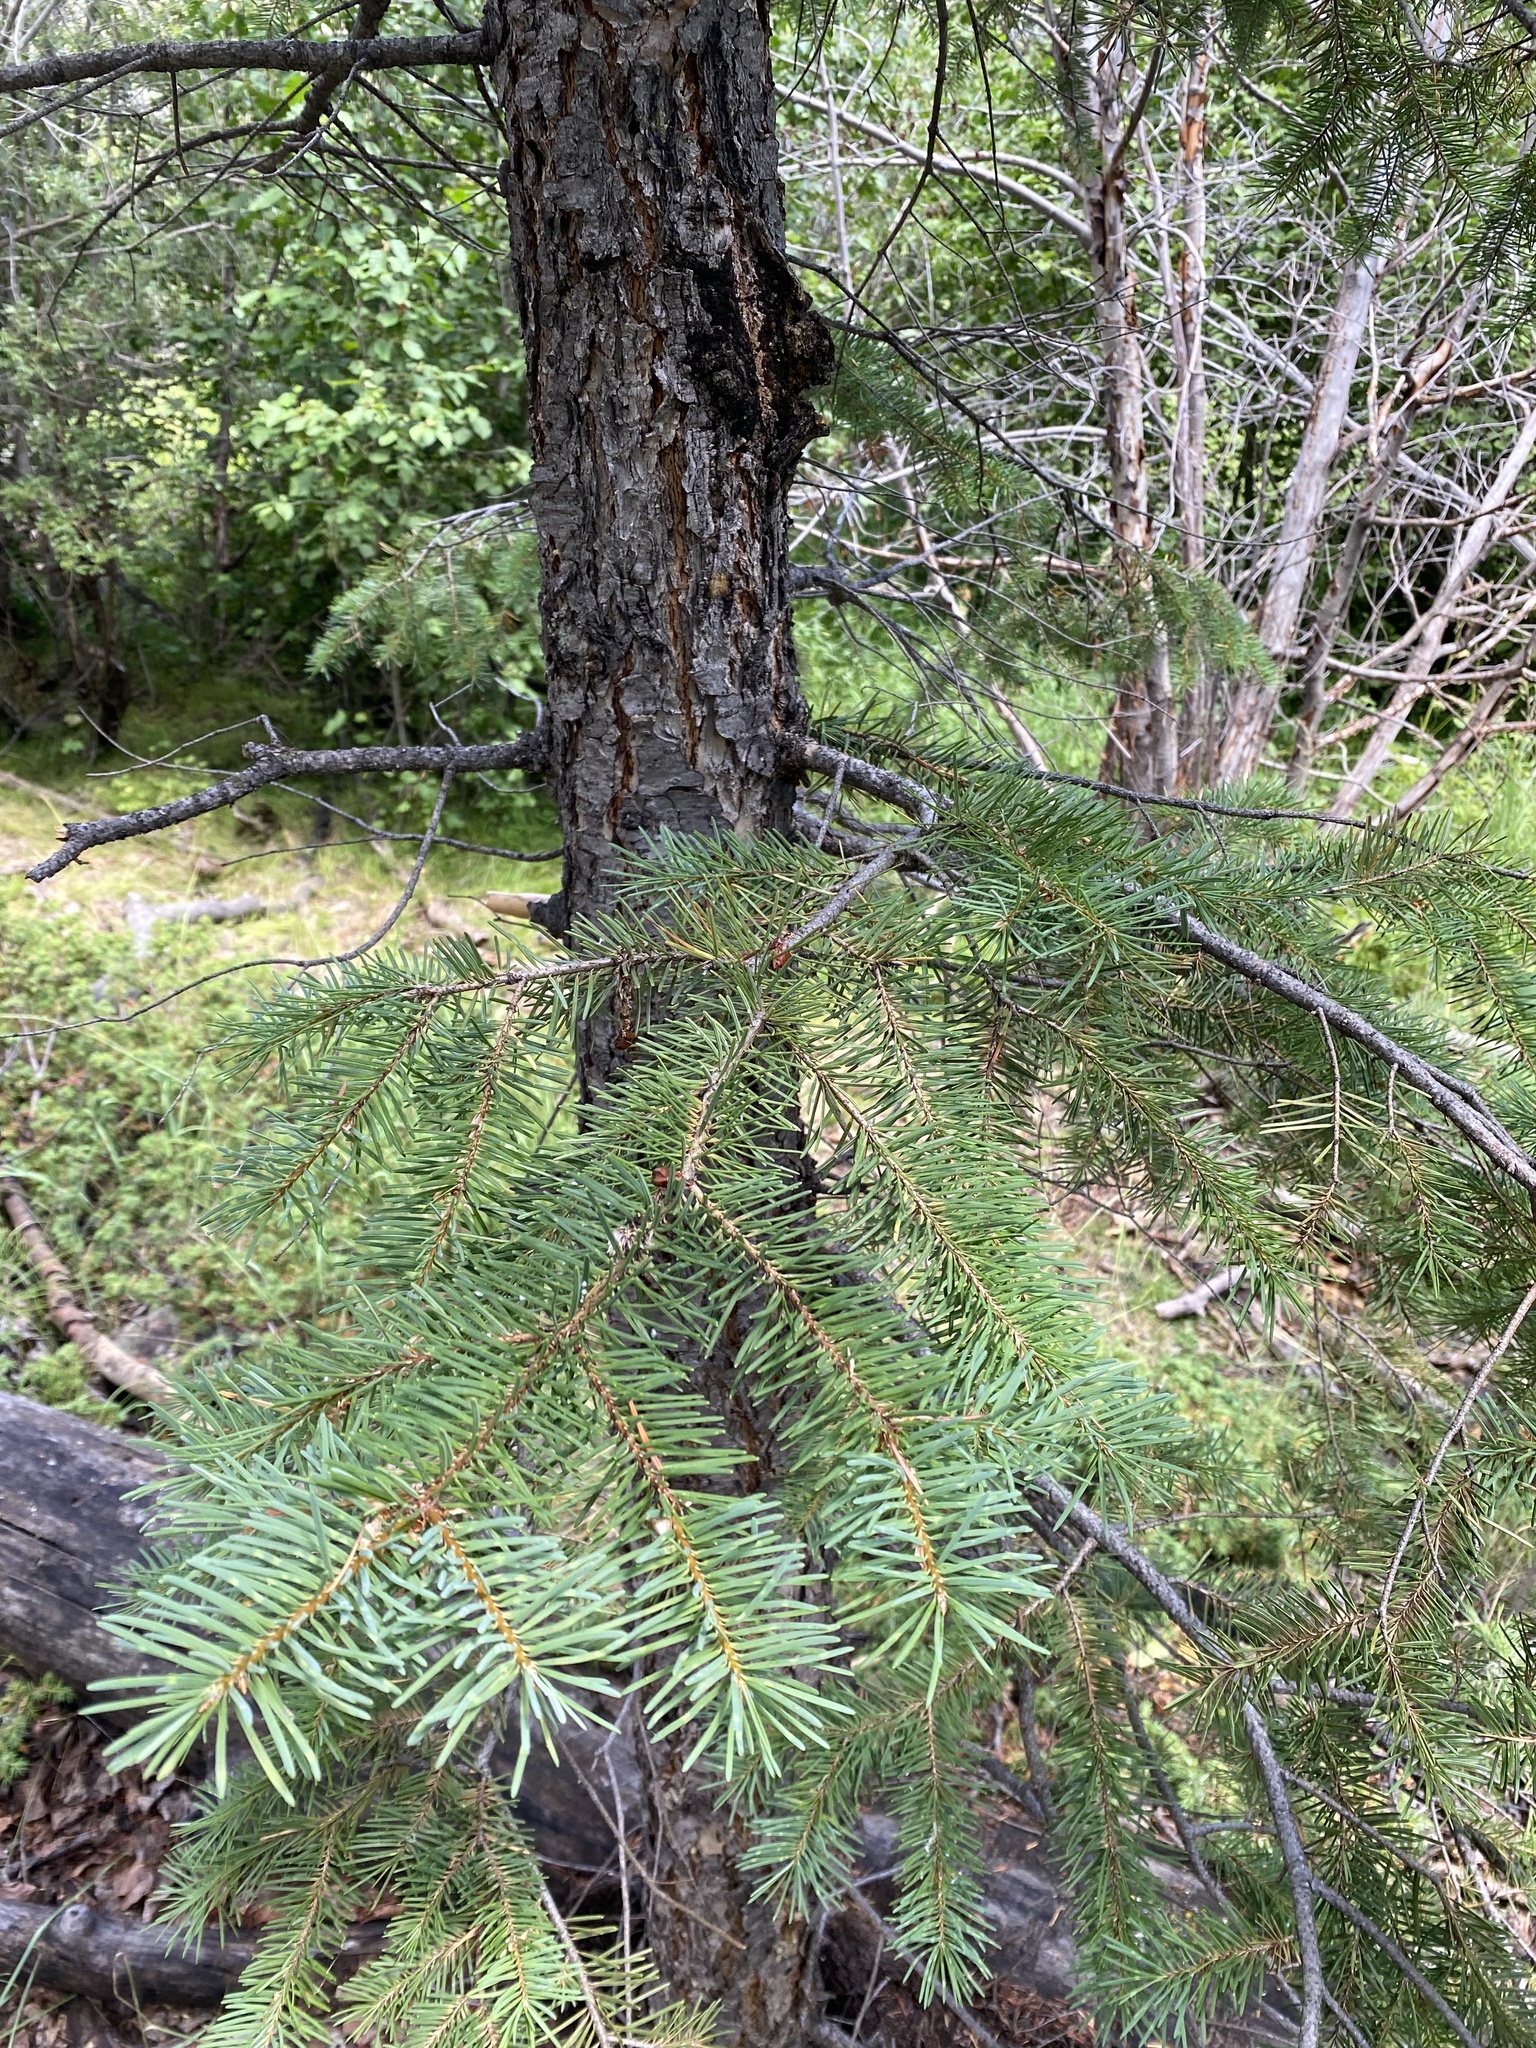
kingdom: Plantae
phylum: Tracheophyta
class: Pinopsida
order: Pinales
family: Pinaceae
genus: Pseudotsuga
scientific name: Pseudotsuga menziesii
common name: Douglas fir
